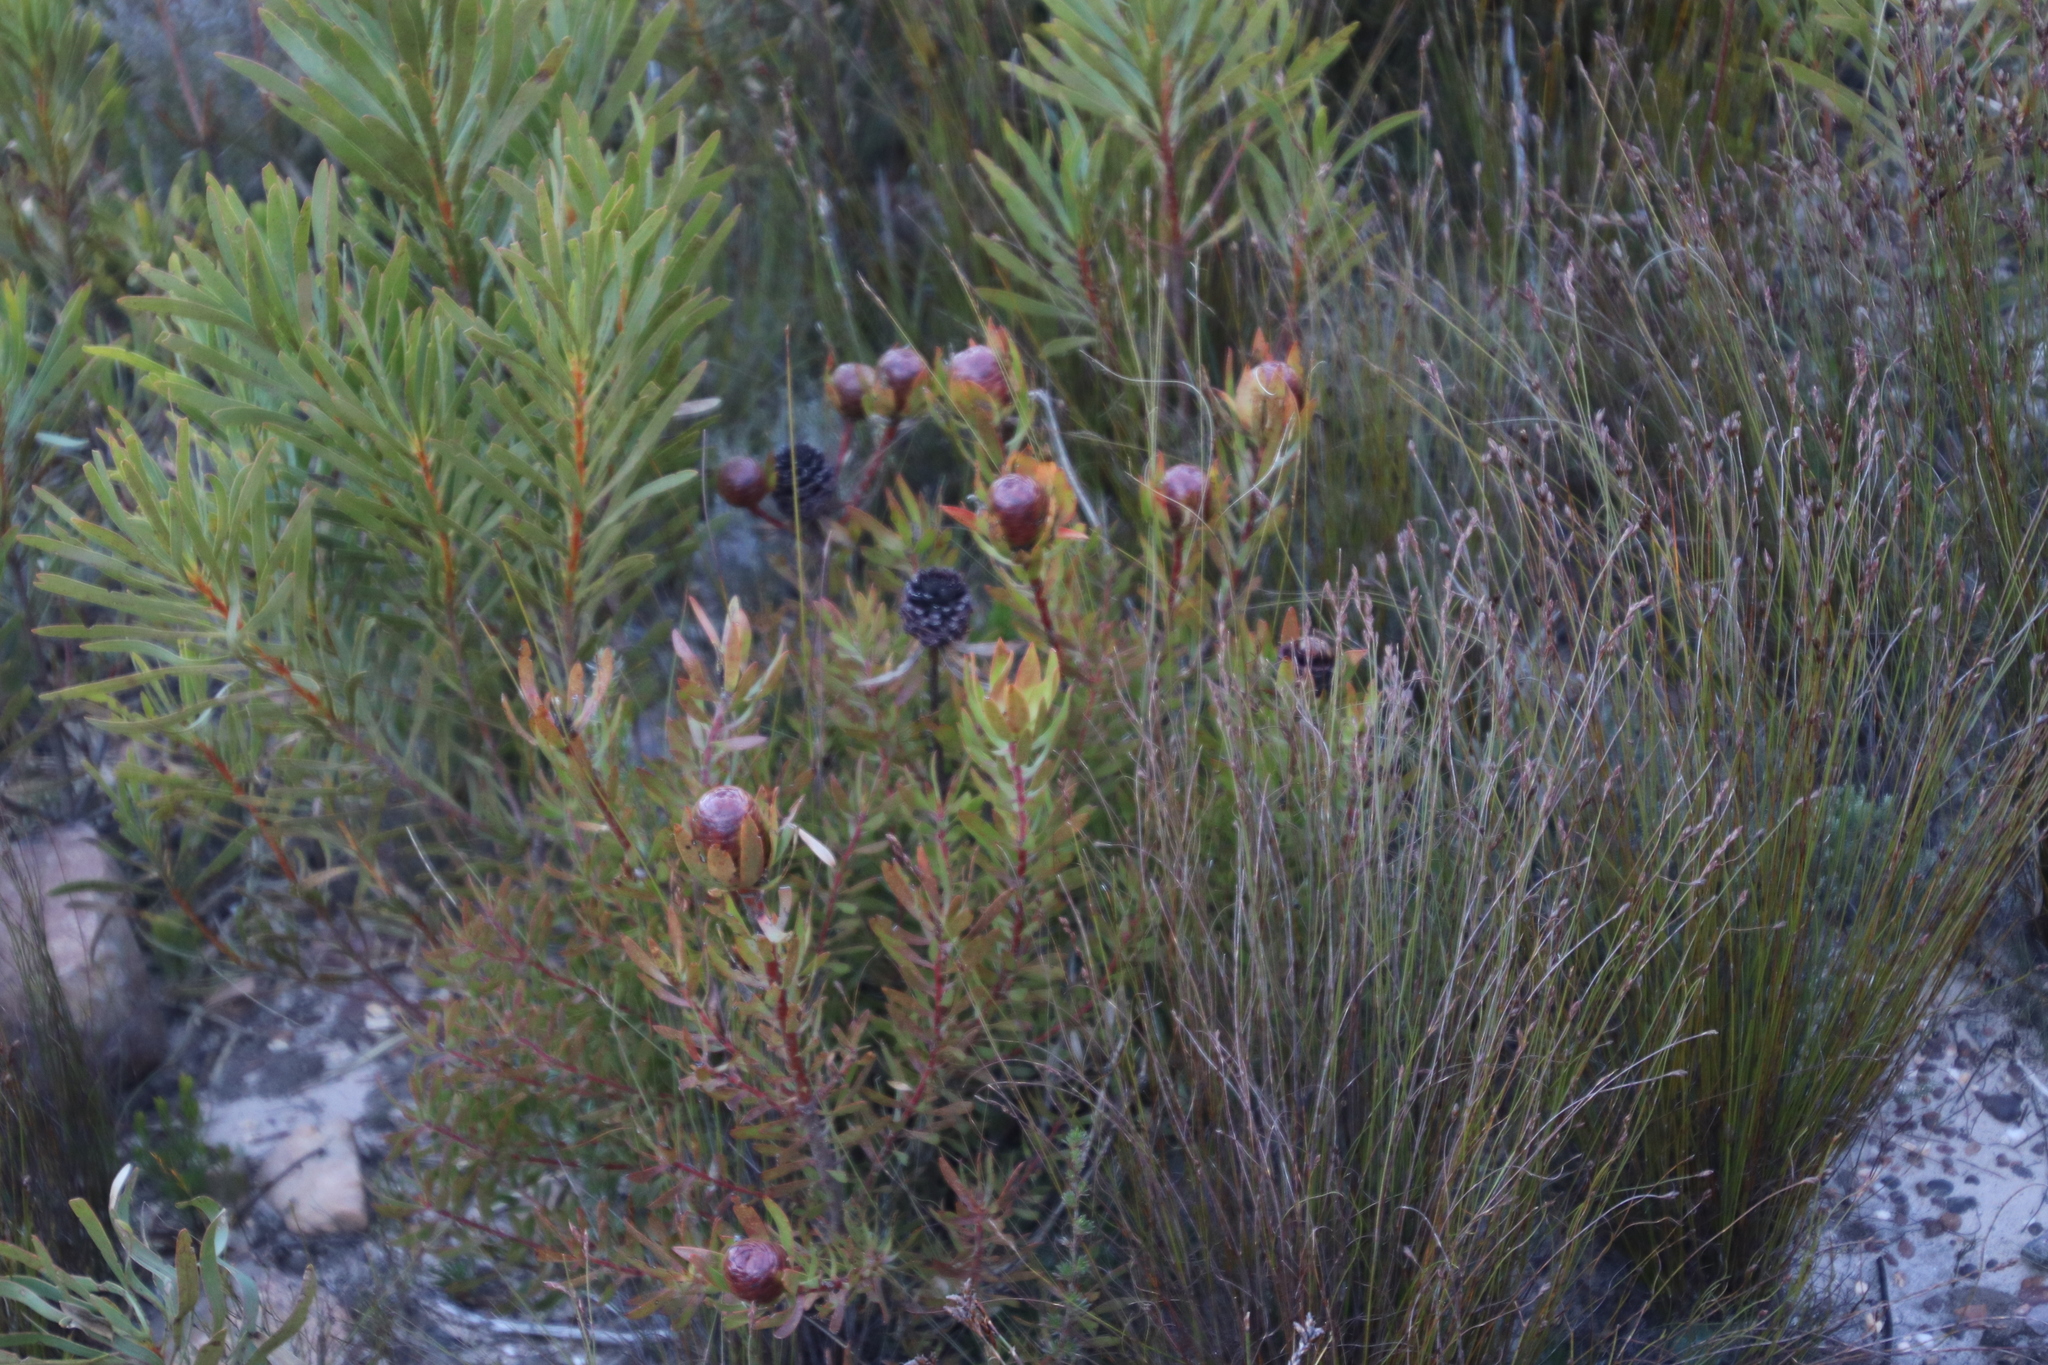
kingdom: Plantae
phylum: Tracheophyta
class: Magnoliopsida
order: Proteales
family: Proteaceae
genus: Leucadendron
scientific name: Leucadendron spissifolium
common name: Spear-leaf conebush
